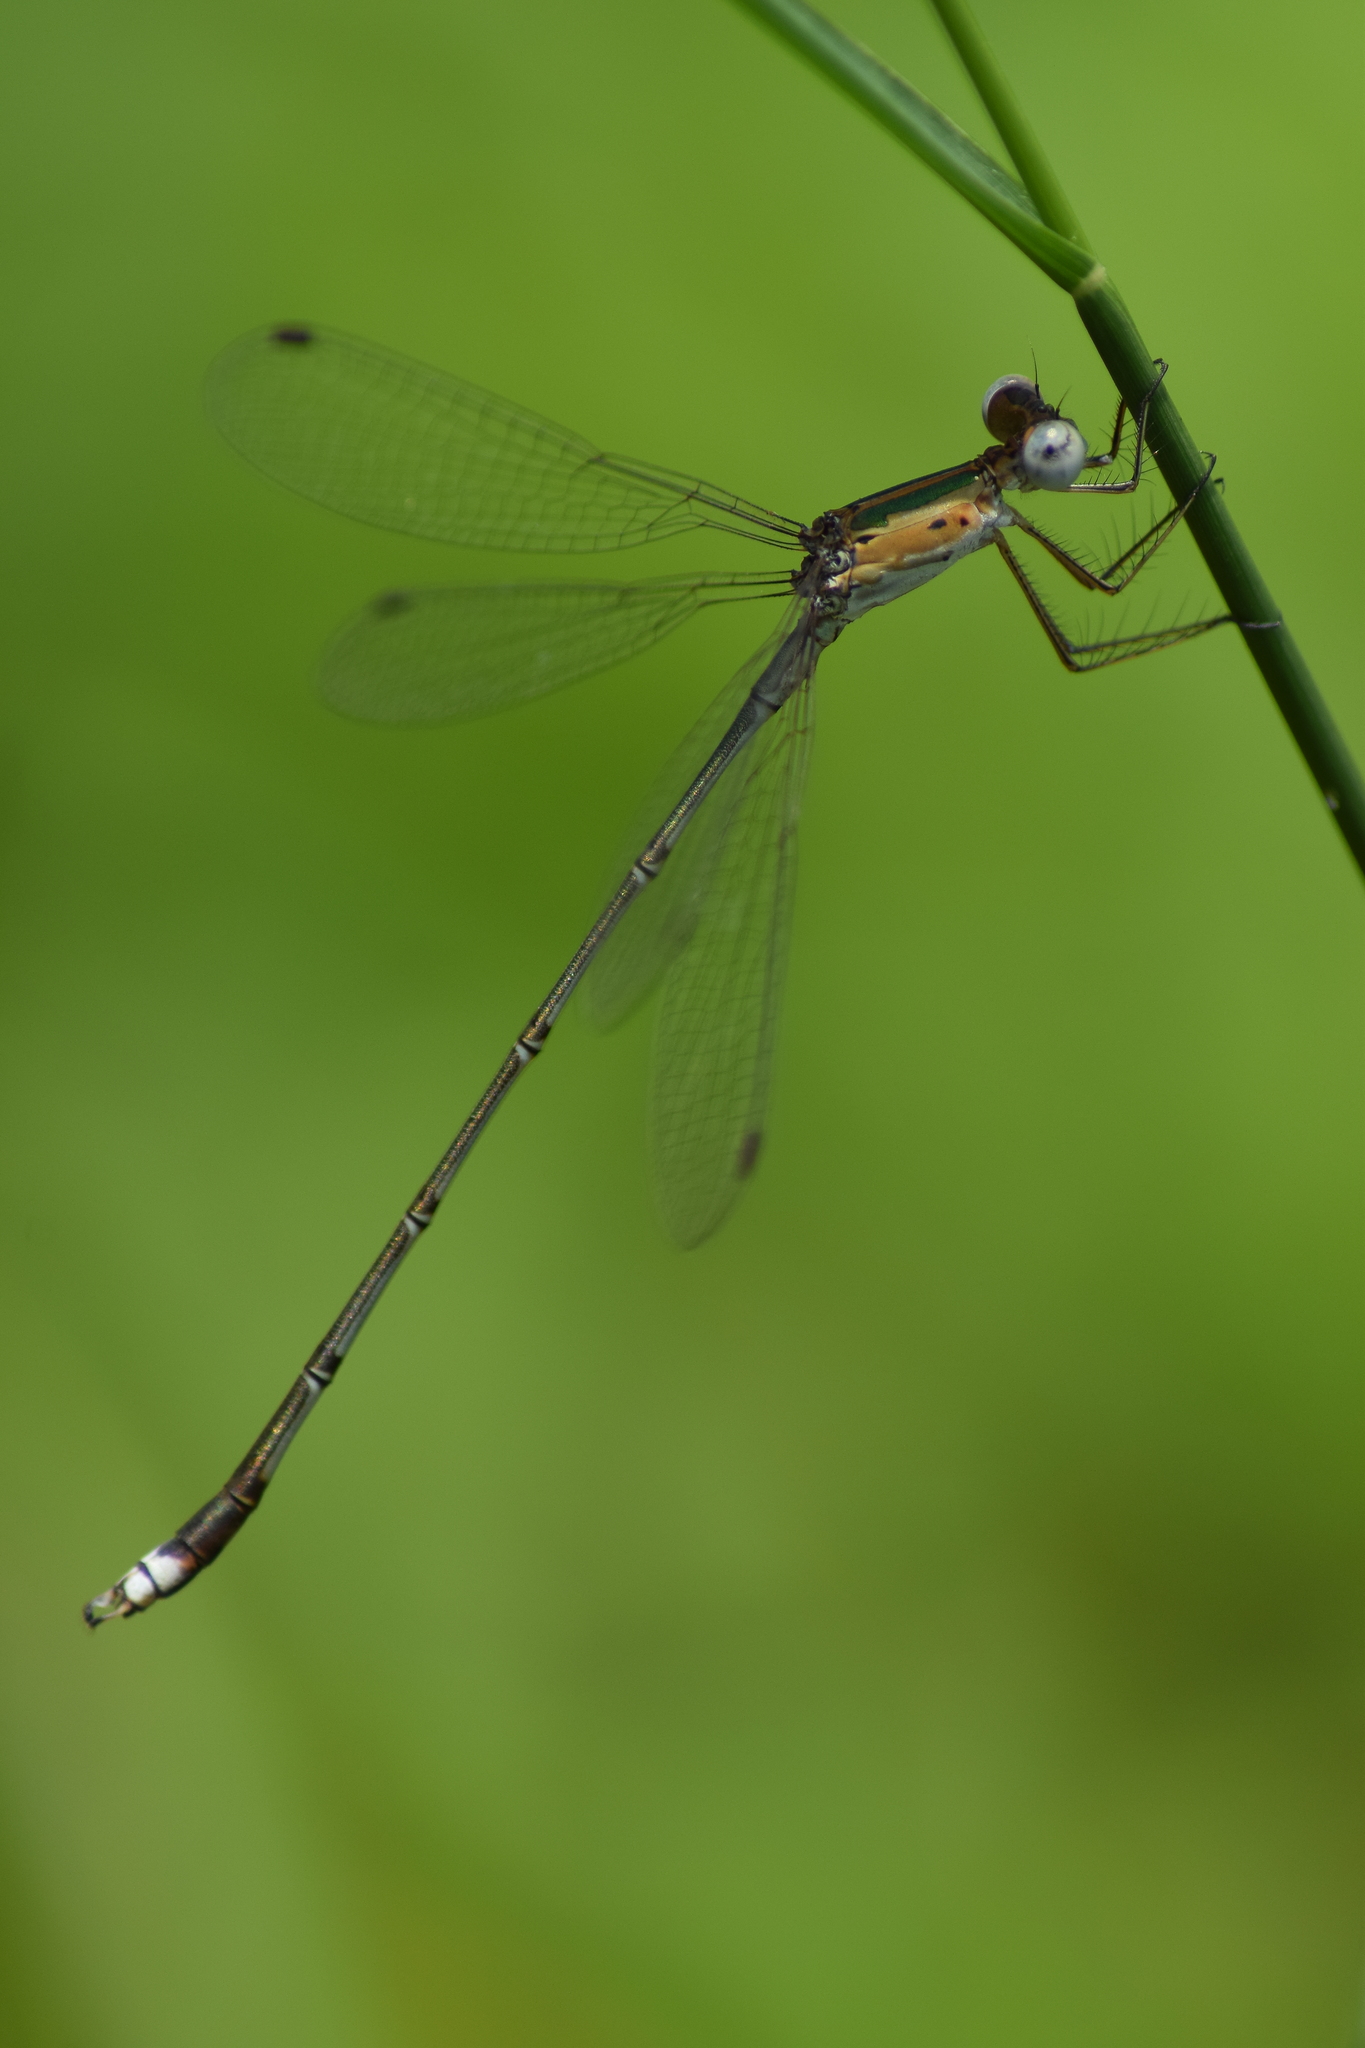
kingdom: Animalia
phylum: Arthropoda
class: Insecta
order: Odonata
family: Lestidae
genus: Lestes
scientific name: Lestes elatus
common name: Emerald spreadwing
